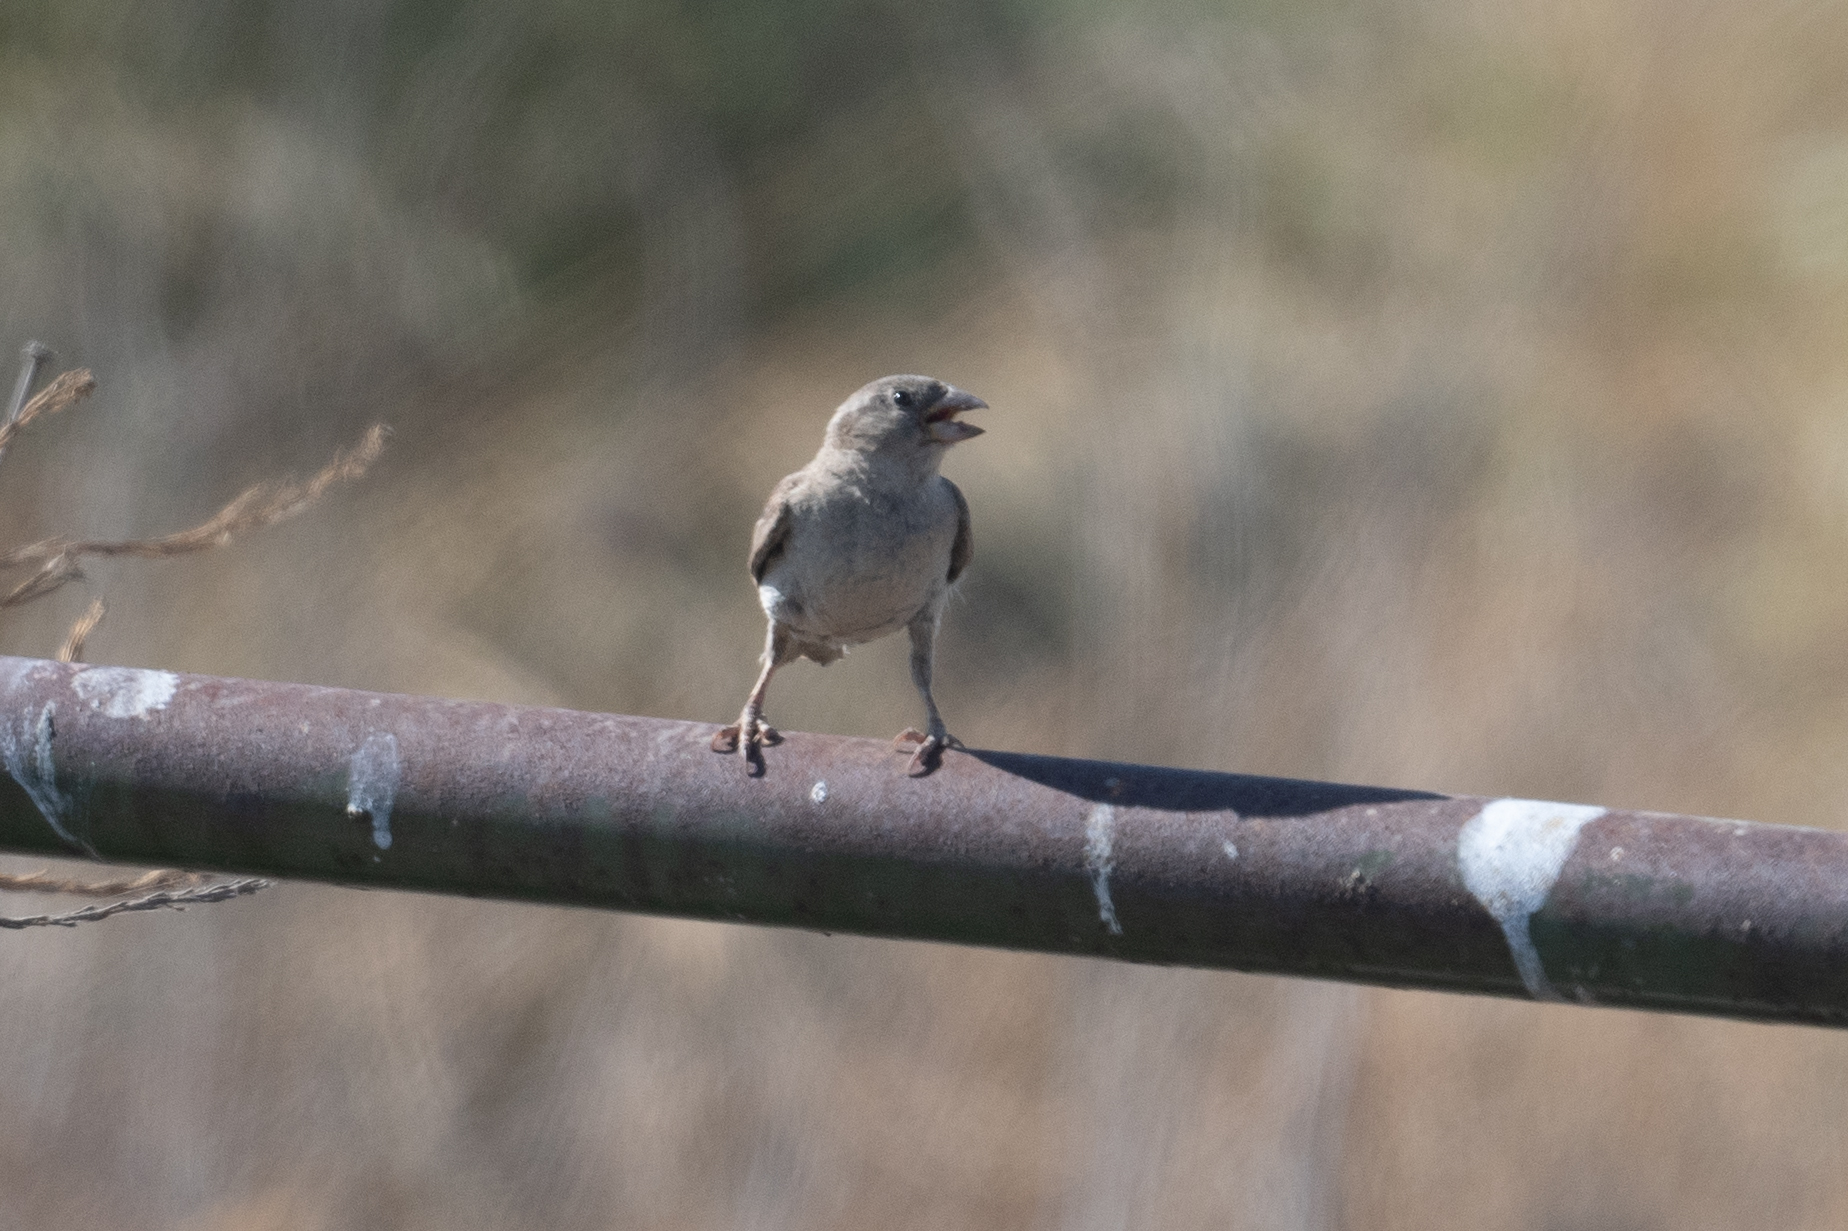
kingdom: Animalia
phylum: Chordata
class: Aves
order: Passeriformes
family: Passeridae
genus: Passer
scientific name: Passer domesticus
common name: House sparrow
